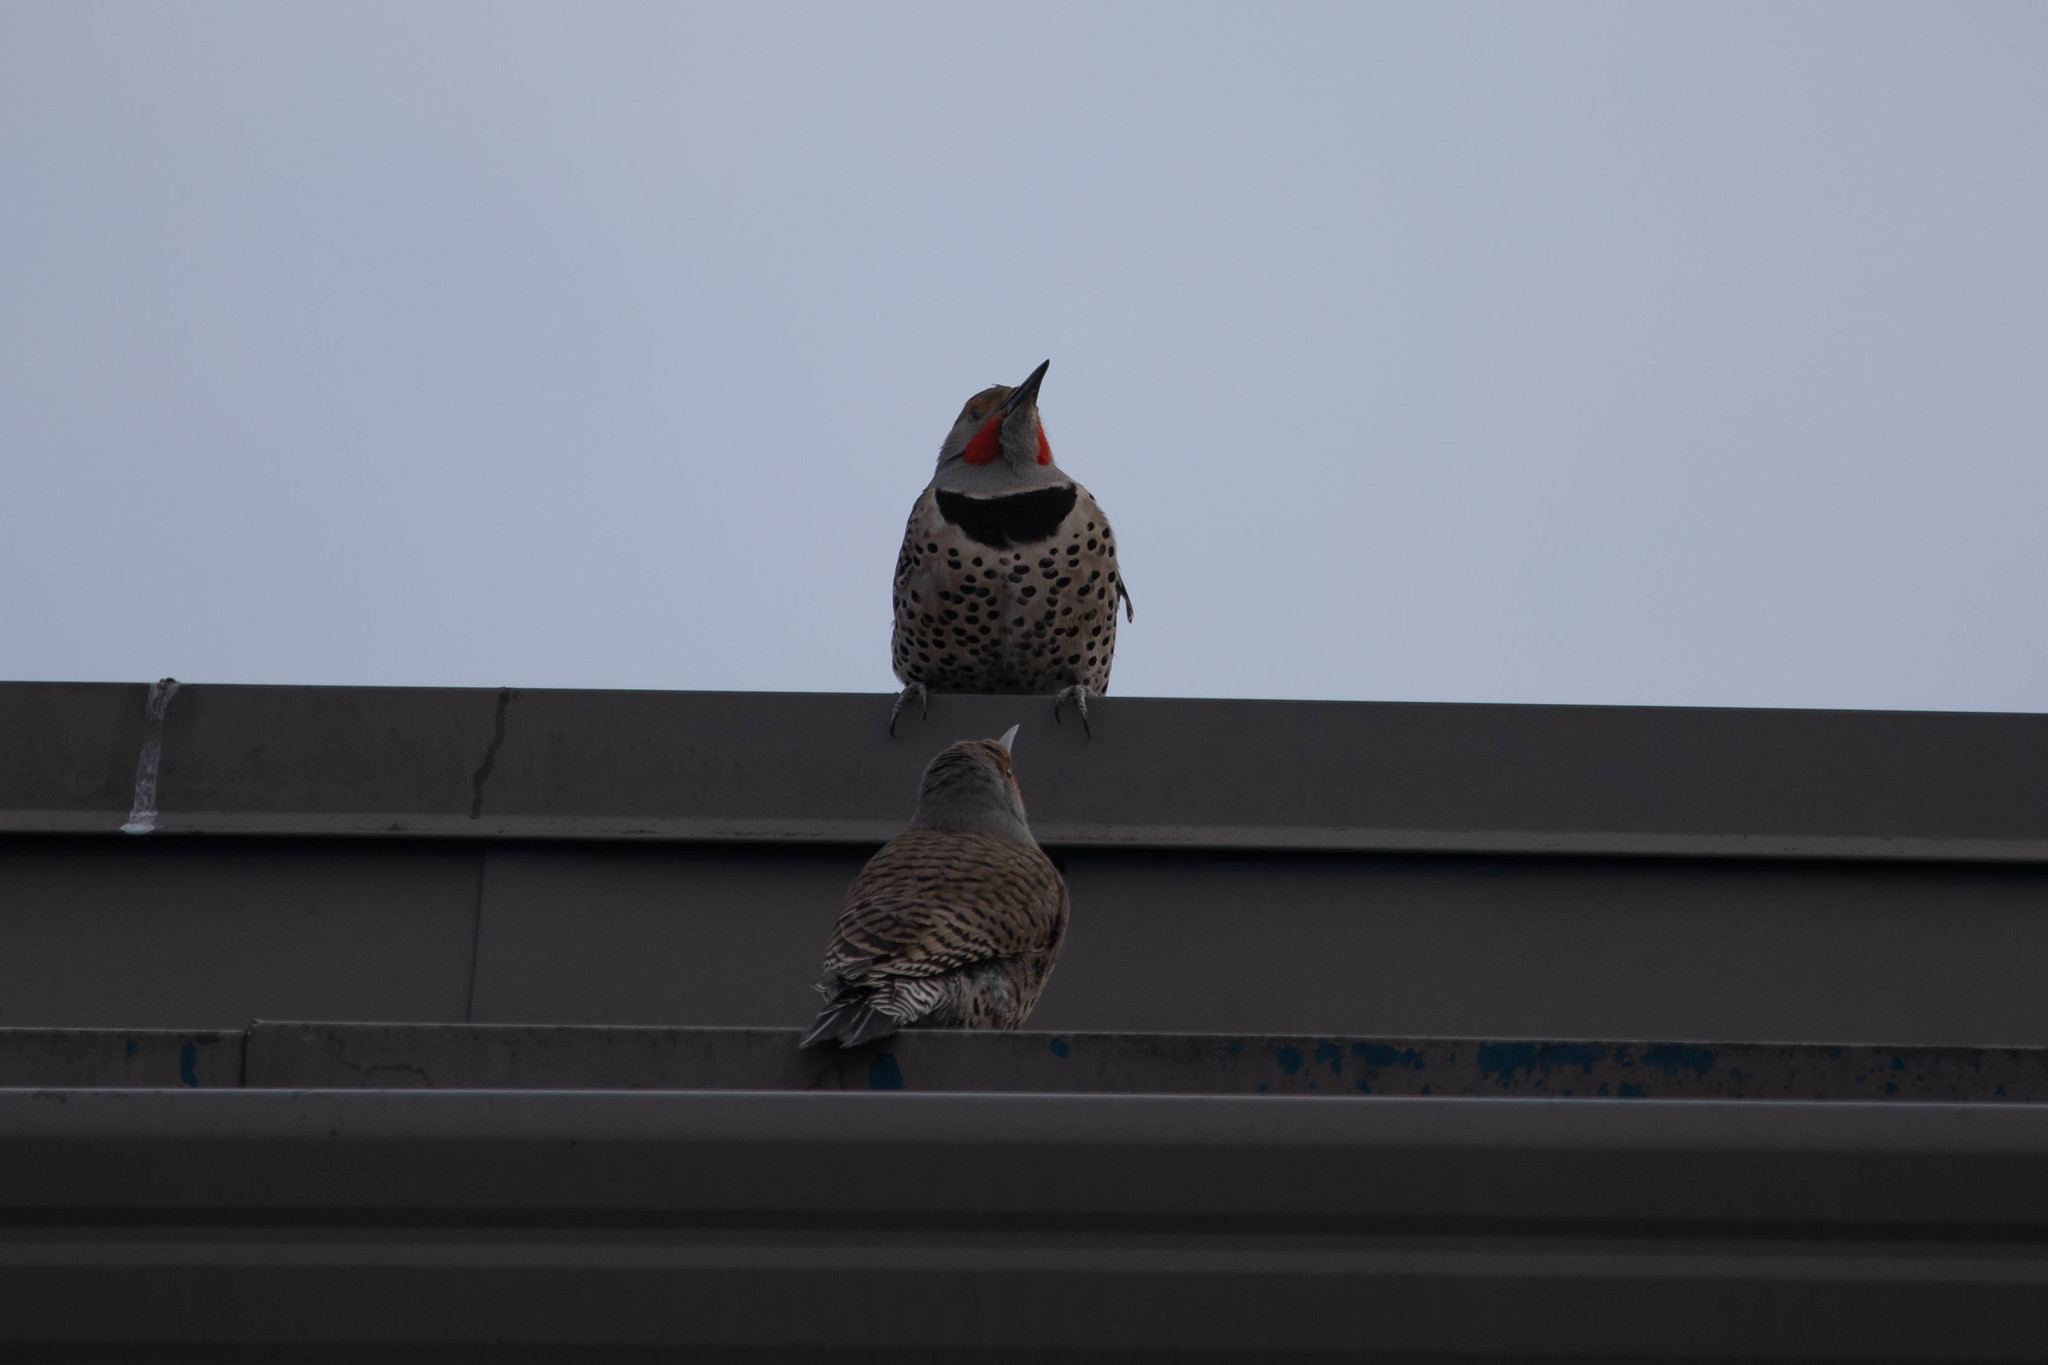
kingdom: Animalia
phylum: Chordata
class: Aves
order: Piciformes
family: Picidae
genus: Colaptes
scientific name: Colaptes auratus
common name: Northern flicker
